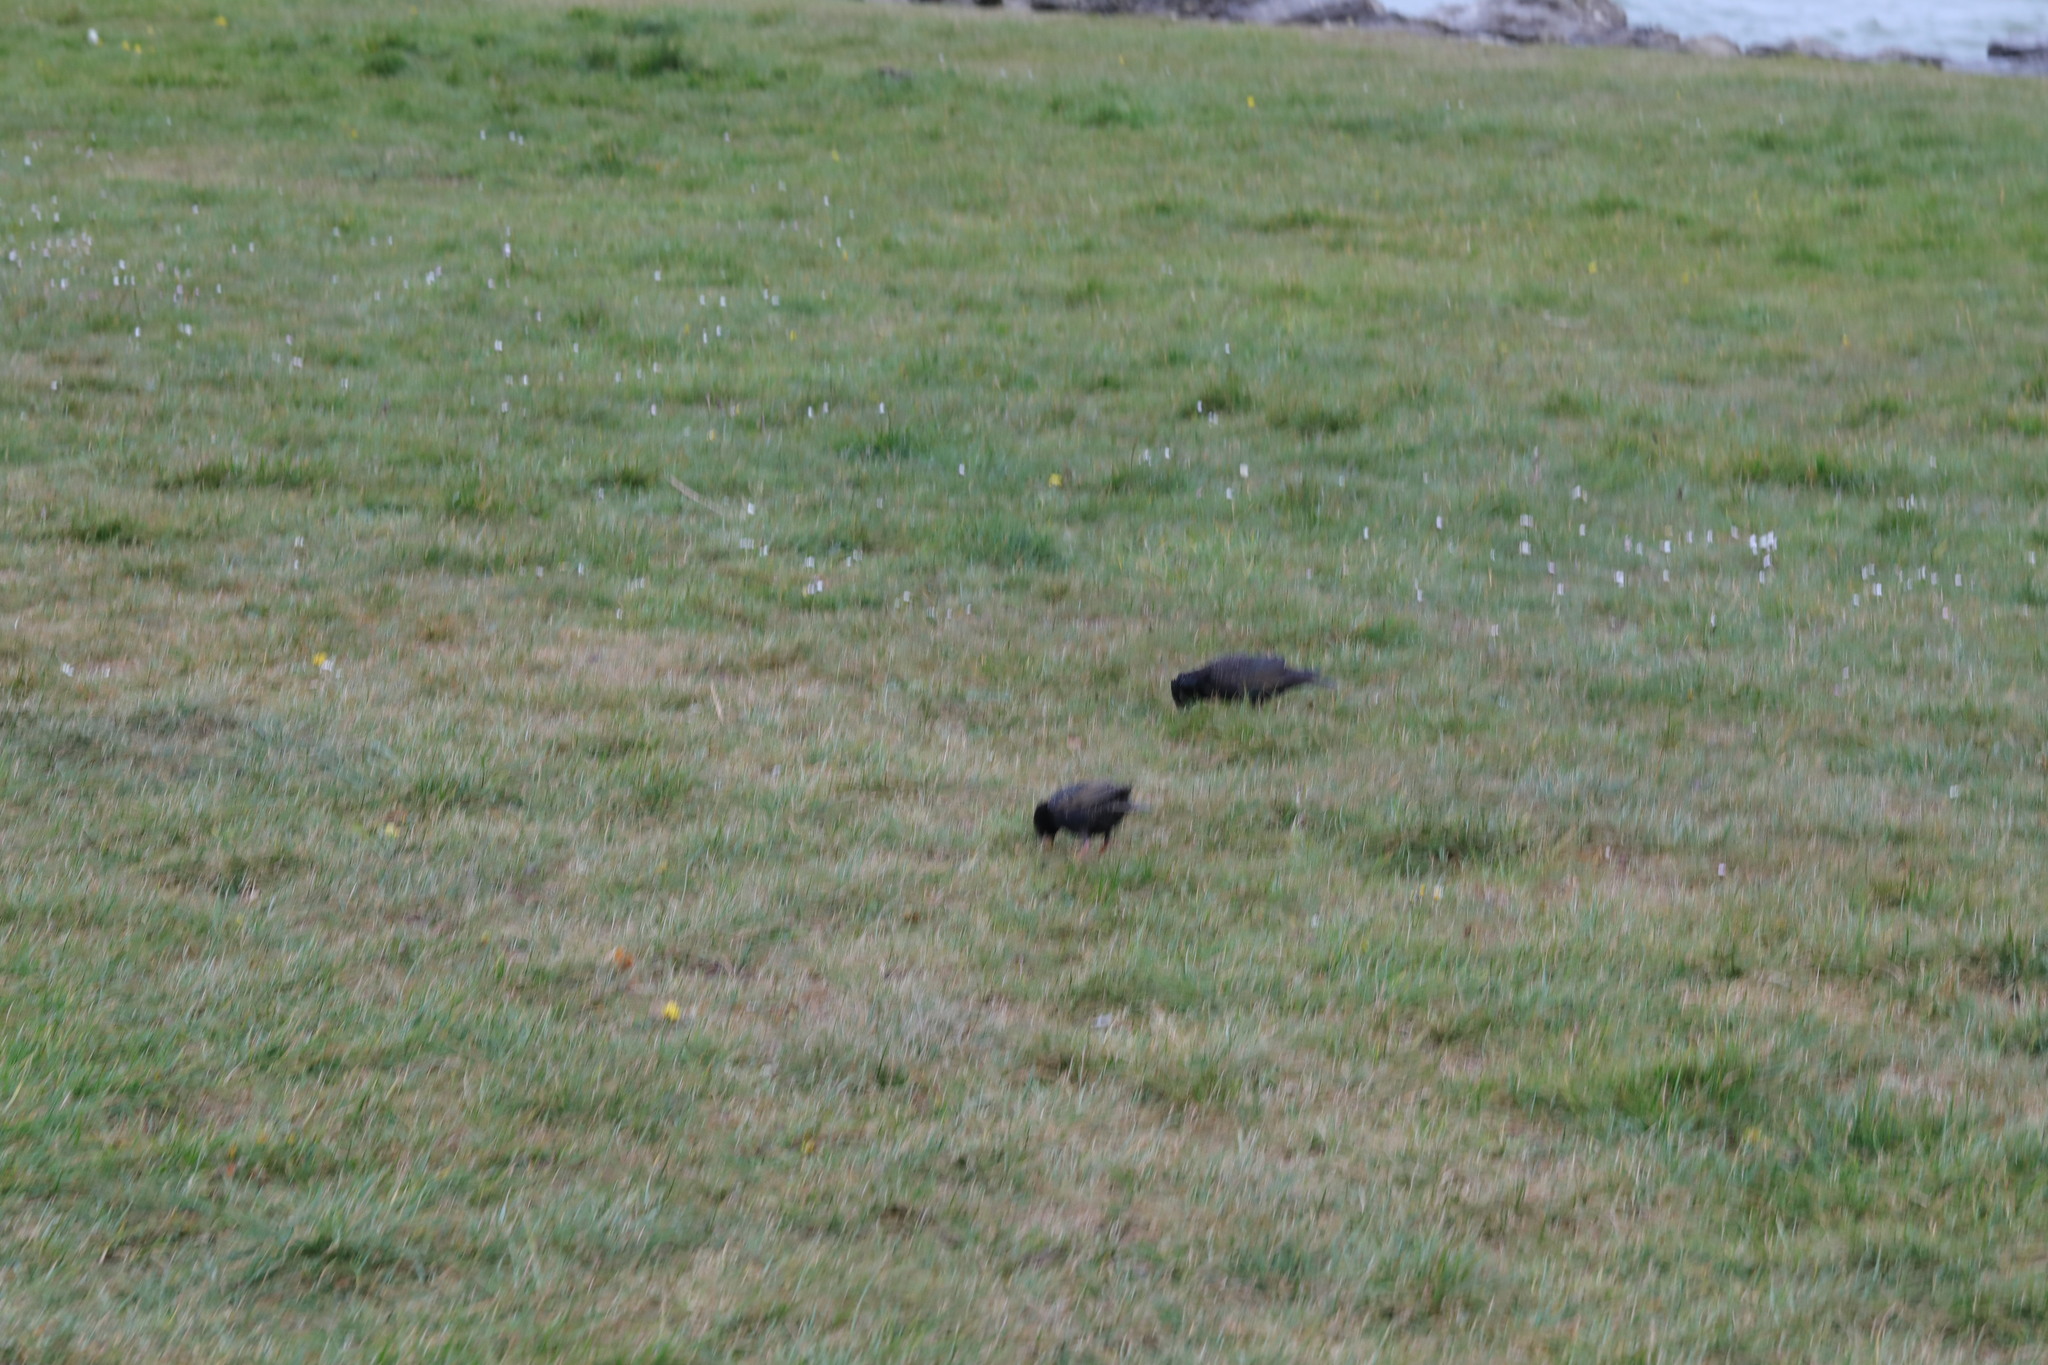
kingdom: Animalia
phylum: Chordata
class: Aves
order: Passeriformes
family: Sturnidae
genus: Sturnus
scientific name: Sturnus vulgaris
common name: Common starling
